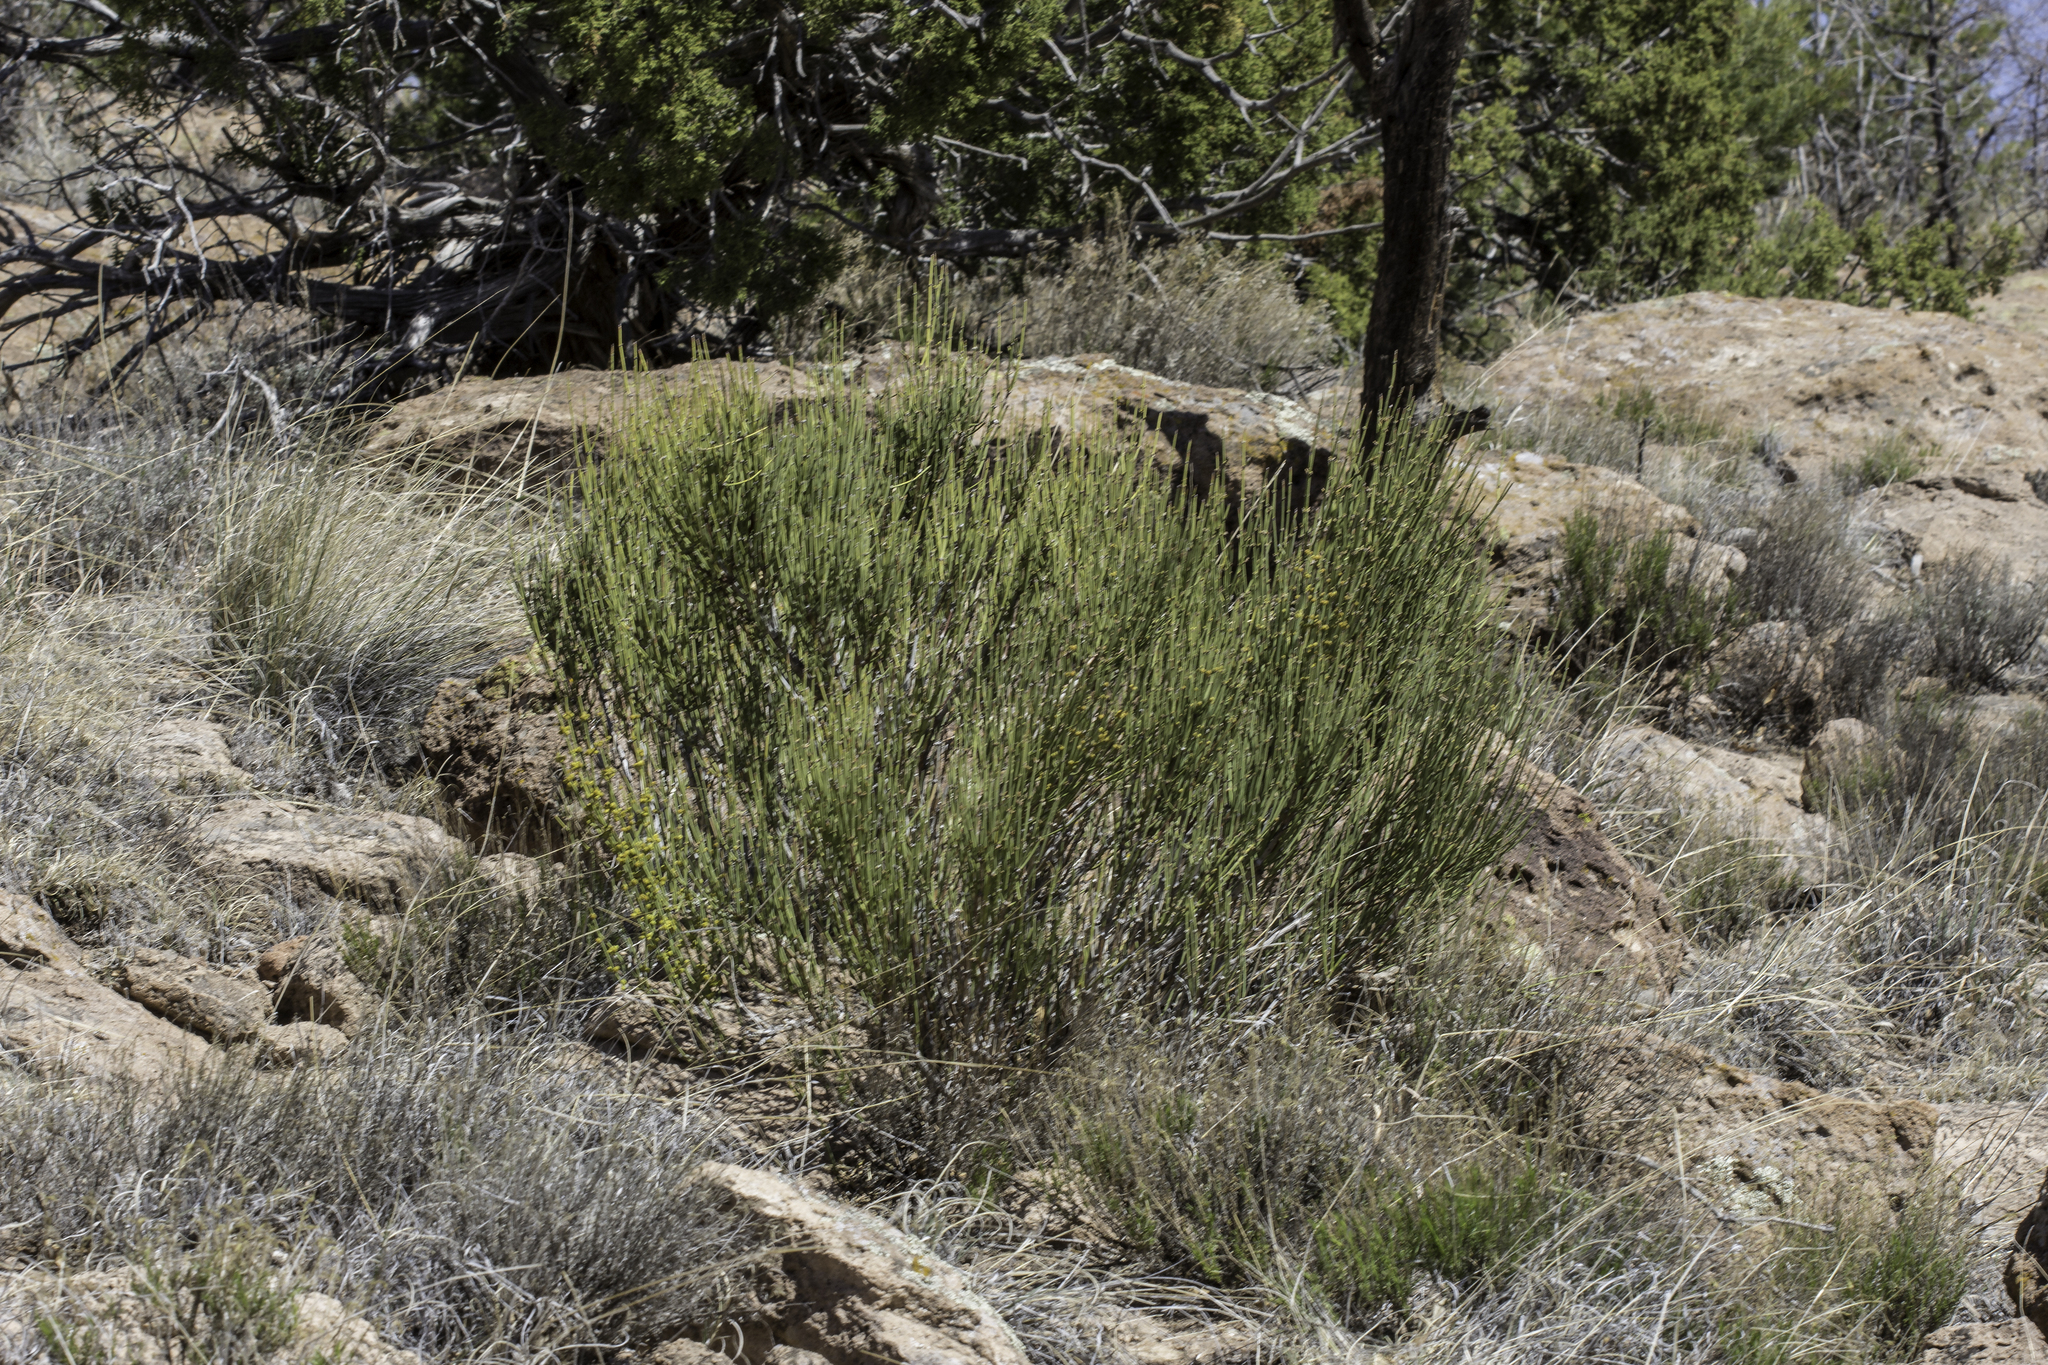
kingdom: Plantae
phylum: Tracheophyta
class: Gnetopsida
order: Ephedrales
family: Ephedraceae
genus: Ephedra
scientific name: Ephedra viridis
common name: Green ephedra
